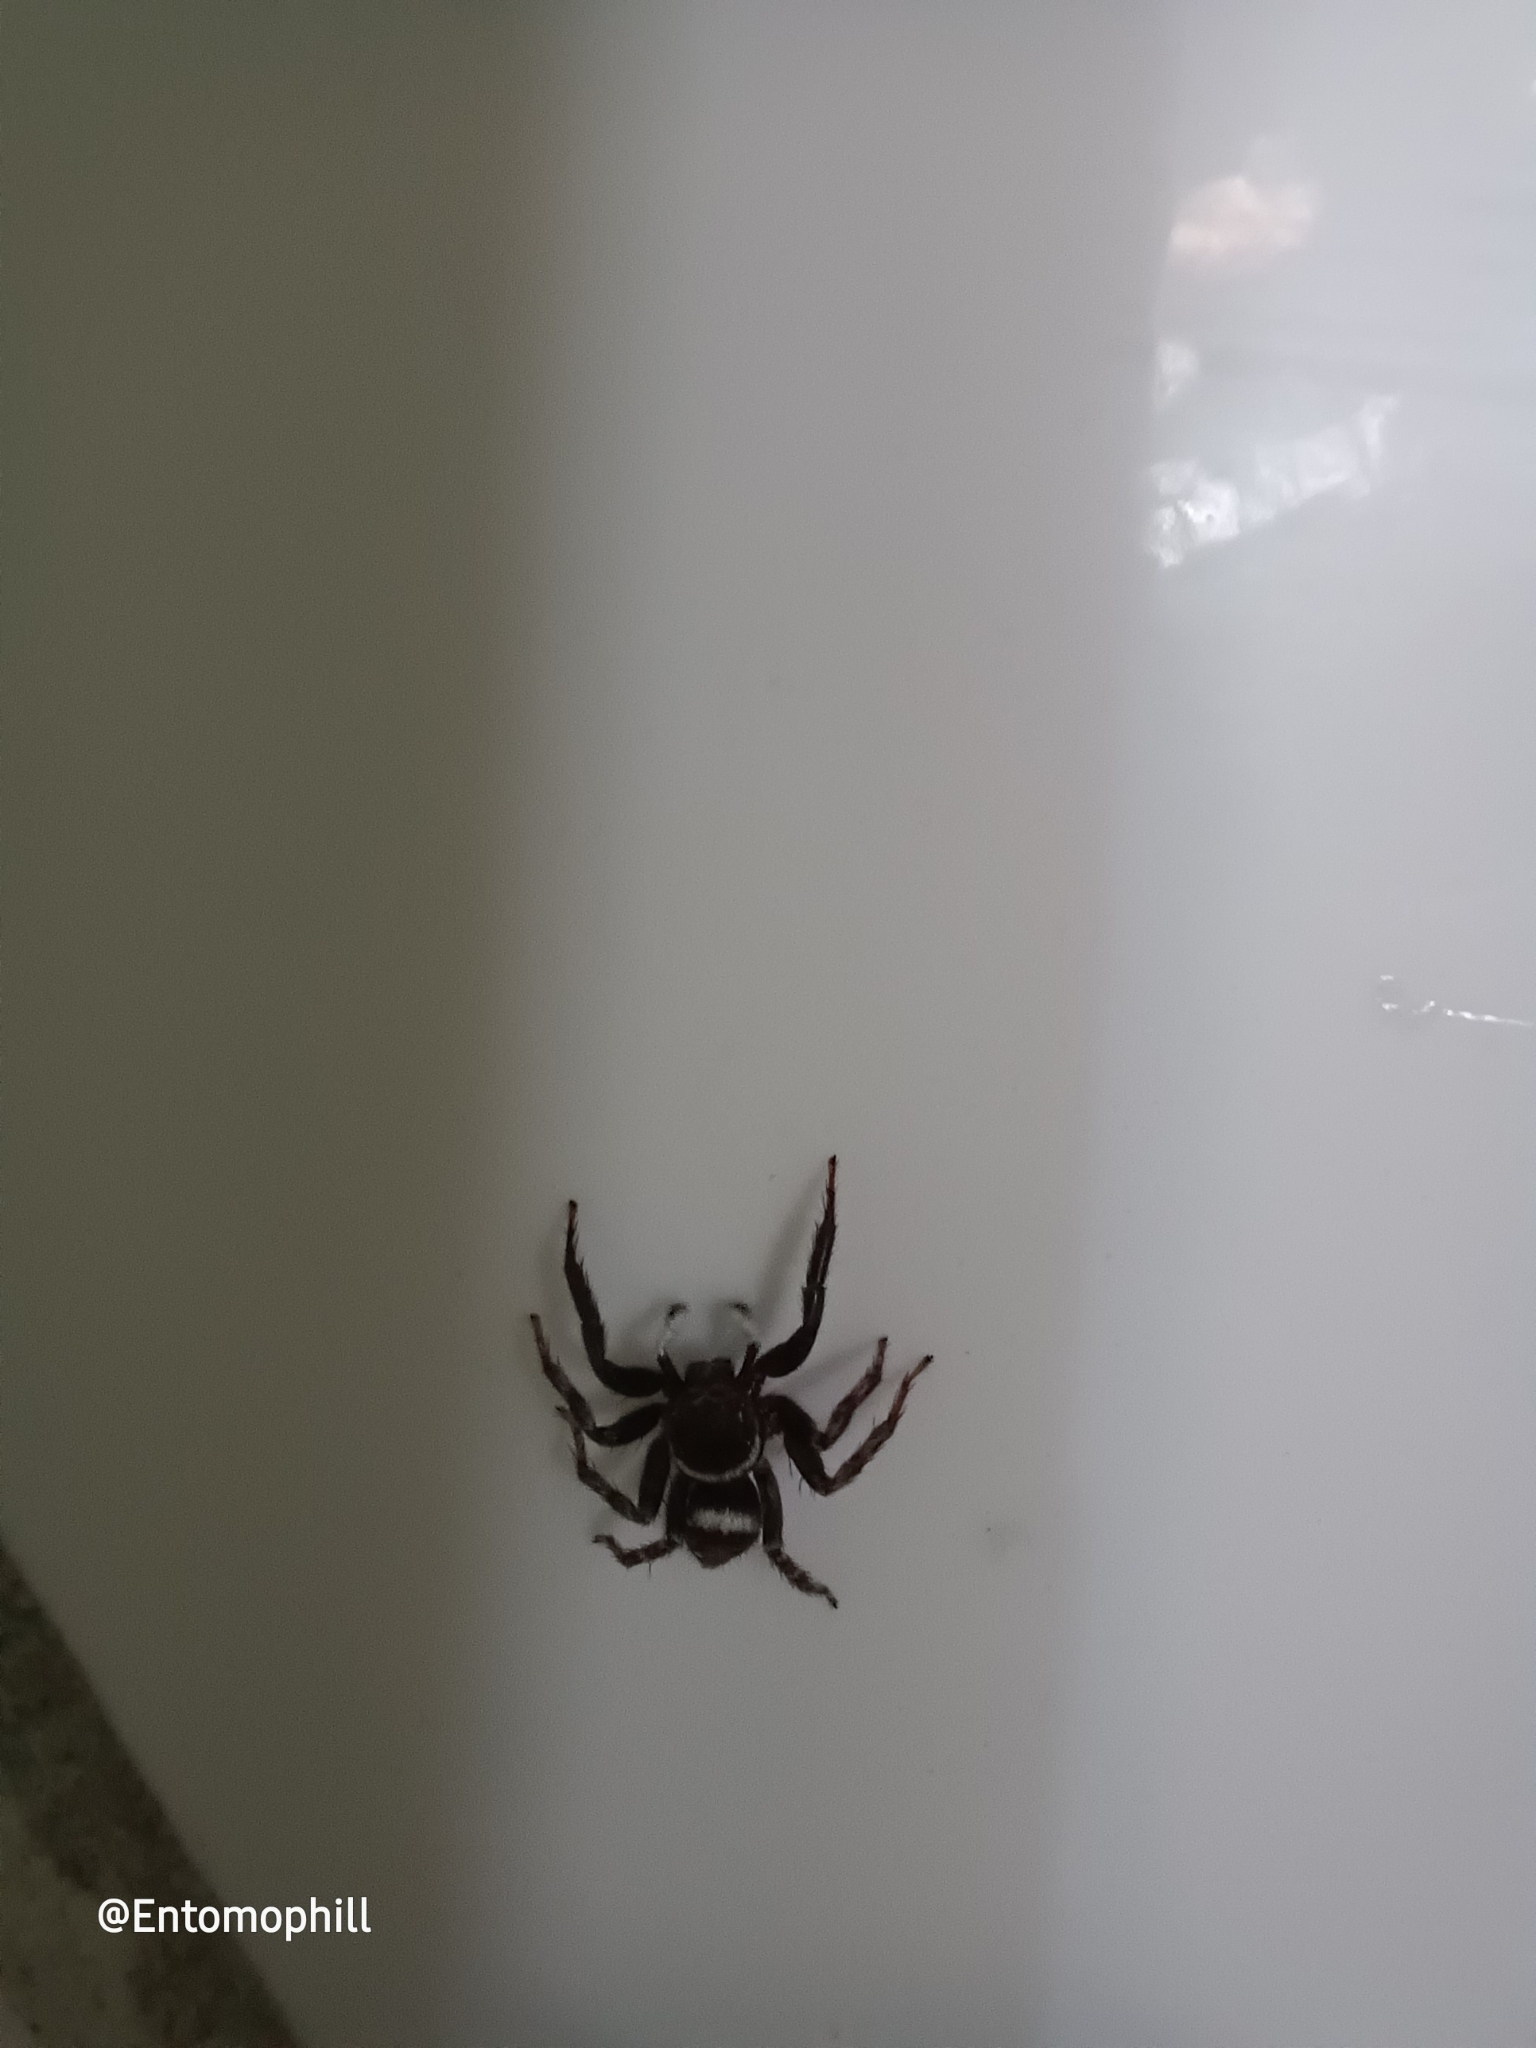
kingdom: Animalia
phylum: Arthropoda
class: Arachnida
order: Araneae
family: Salticidae
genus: Hasarius
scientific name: Hasarius adansoni
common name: Jumping spider
